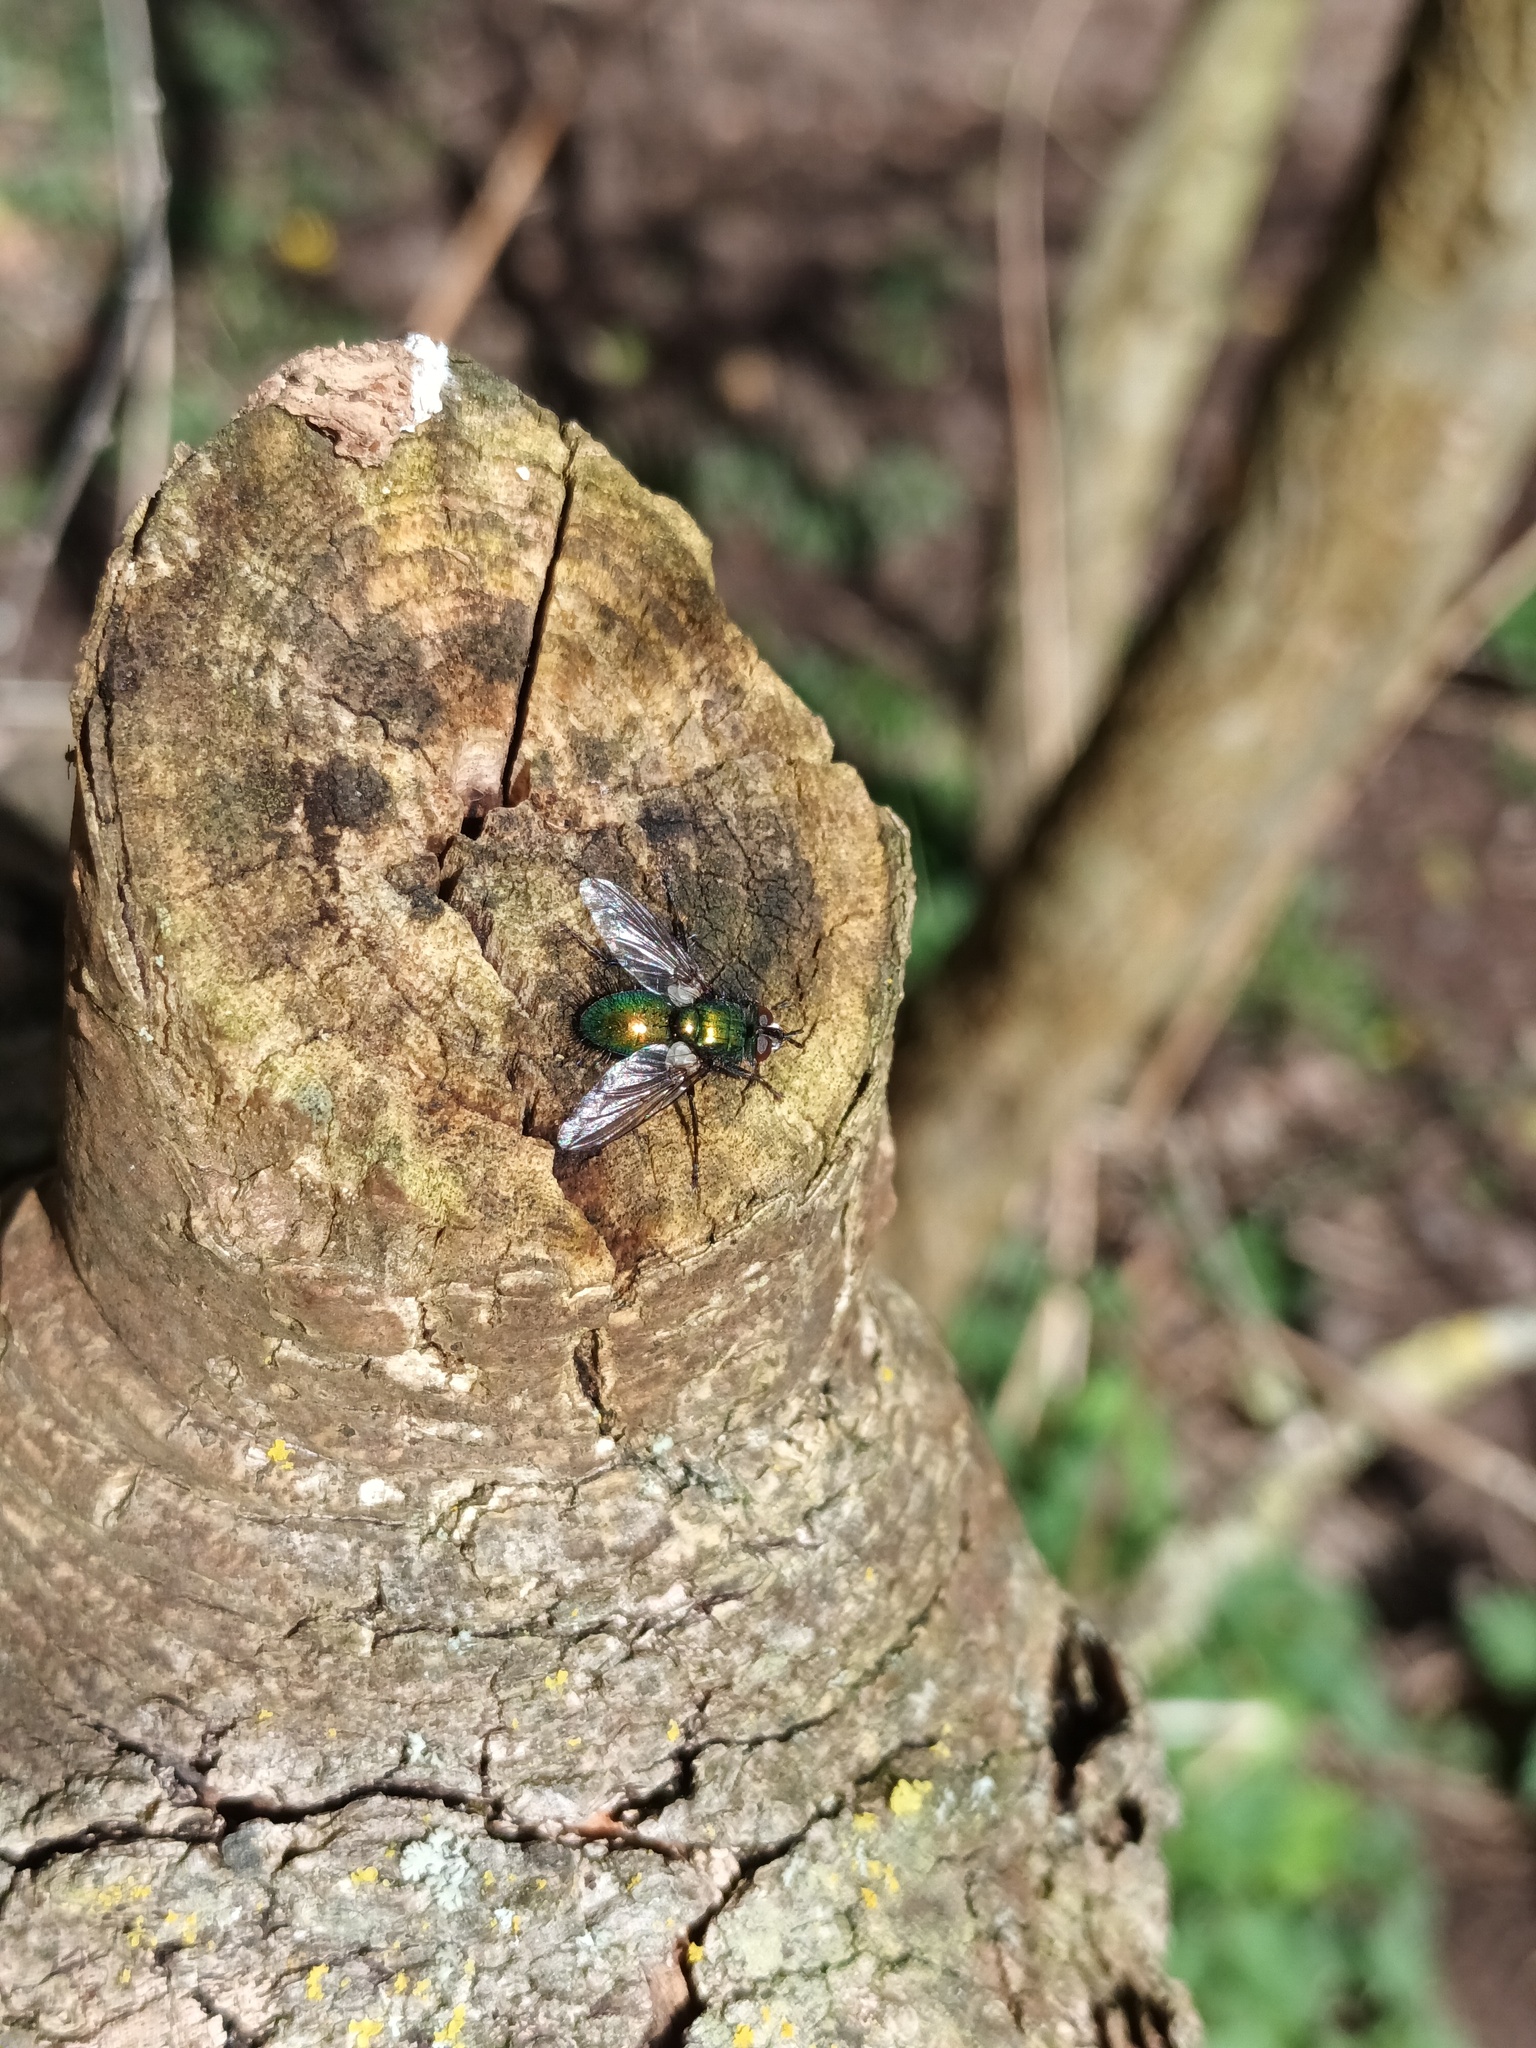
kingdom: Animalia
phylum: Arthropoda
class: Insecta
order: Diptera
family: Tachinidae
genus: Gymnocheta
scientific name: Gymnocheta viridis
